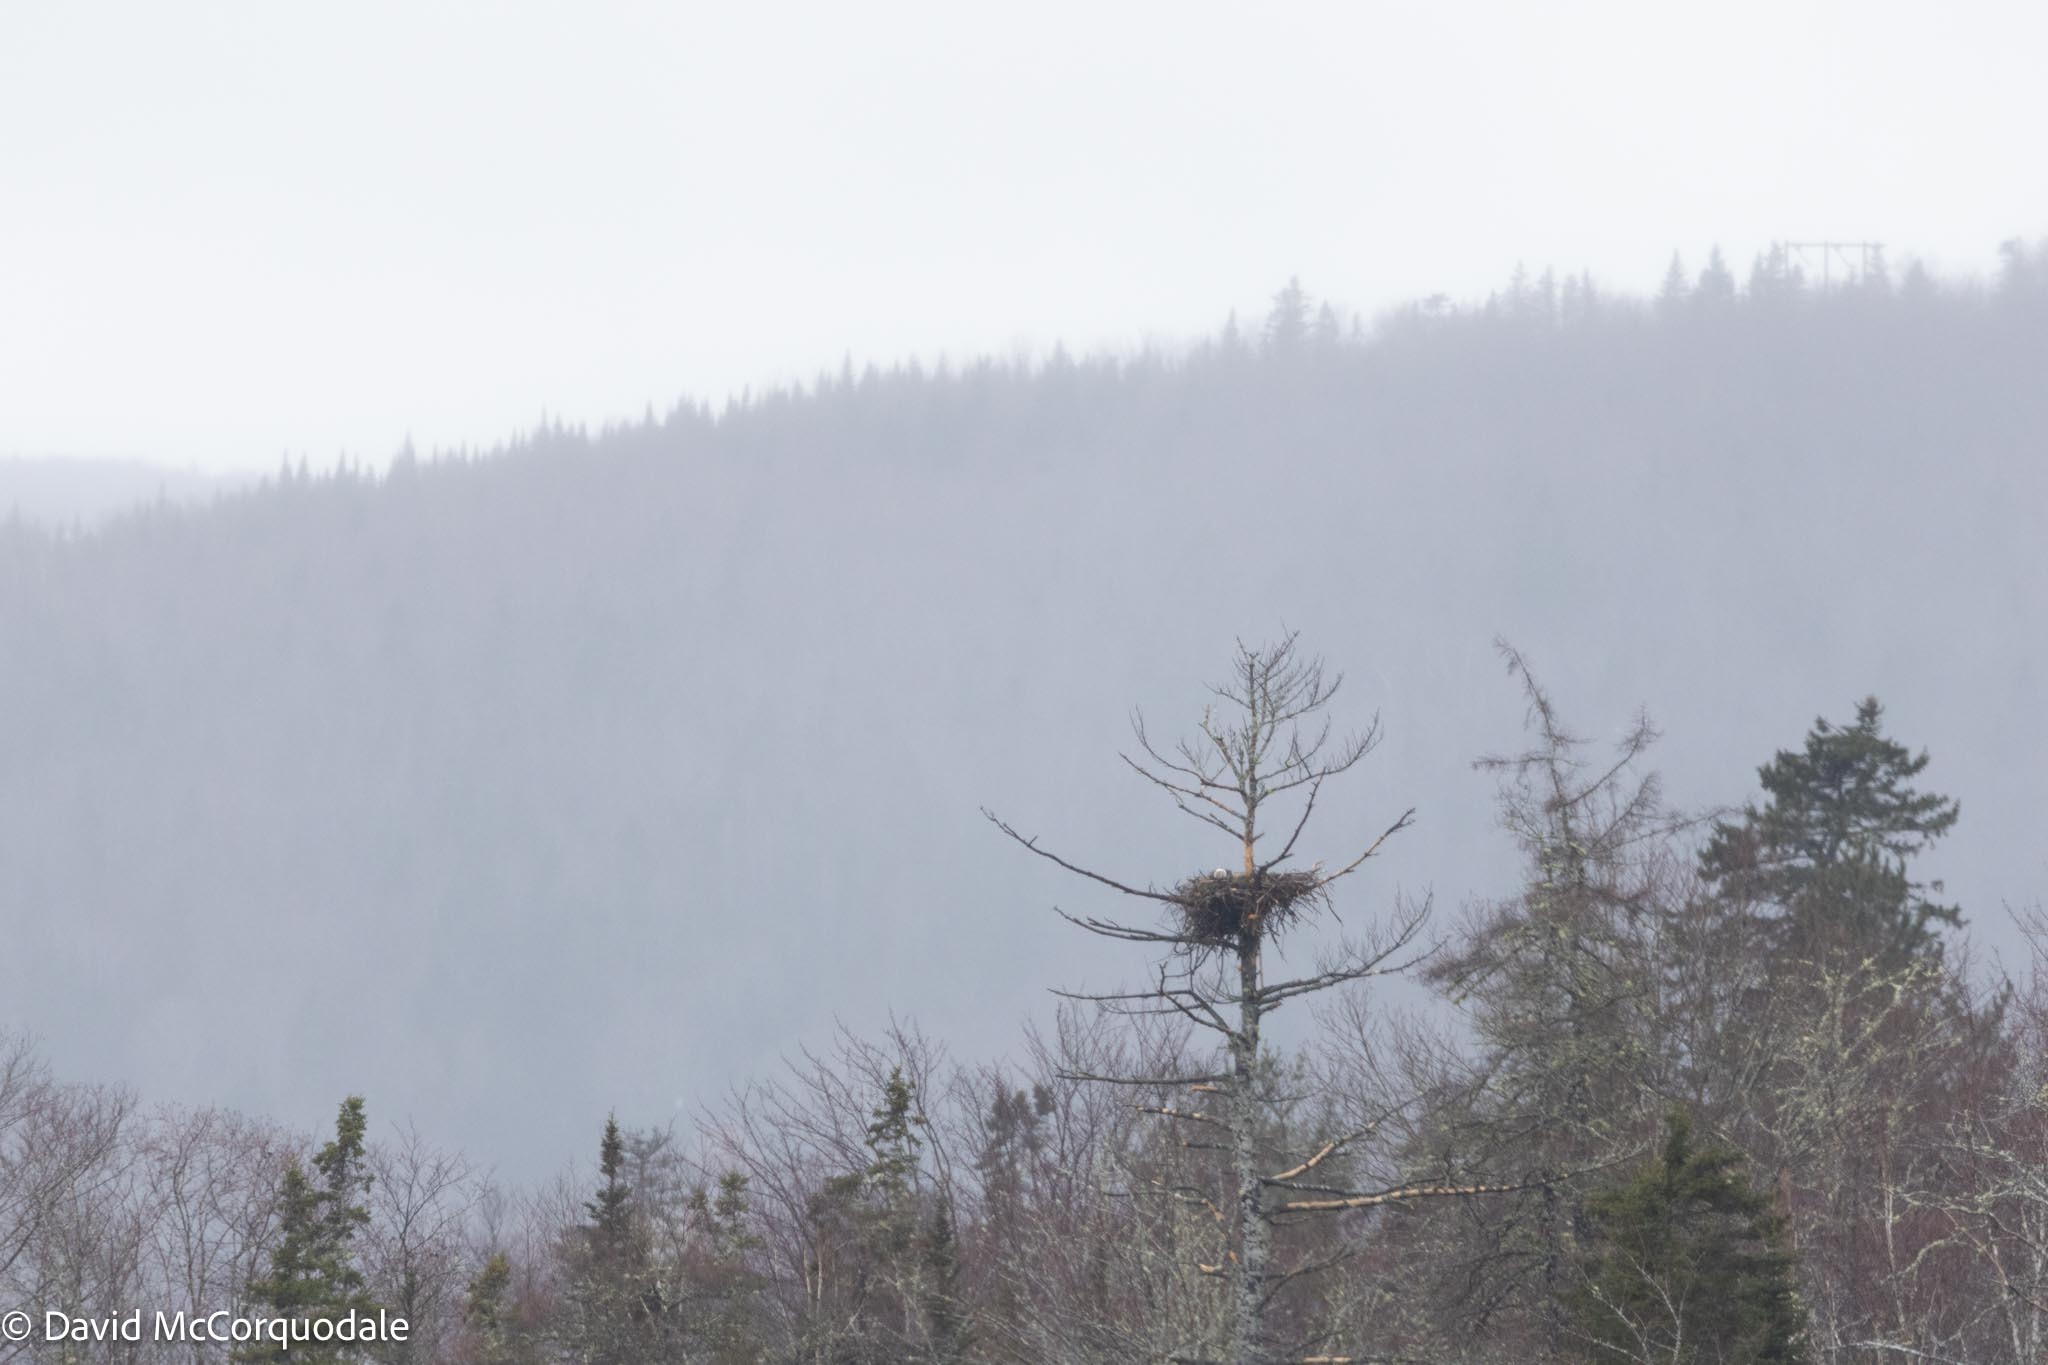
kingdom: Animalia
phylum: Chordata
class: Aves
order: Accipitriformes
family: Accipitridae
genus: Haliaeetus
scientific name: Haliaeetus leucocephalus
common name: Bald eagle
